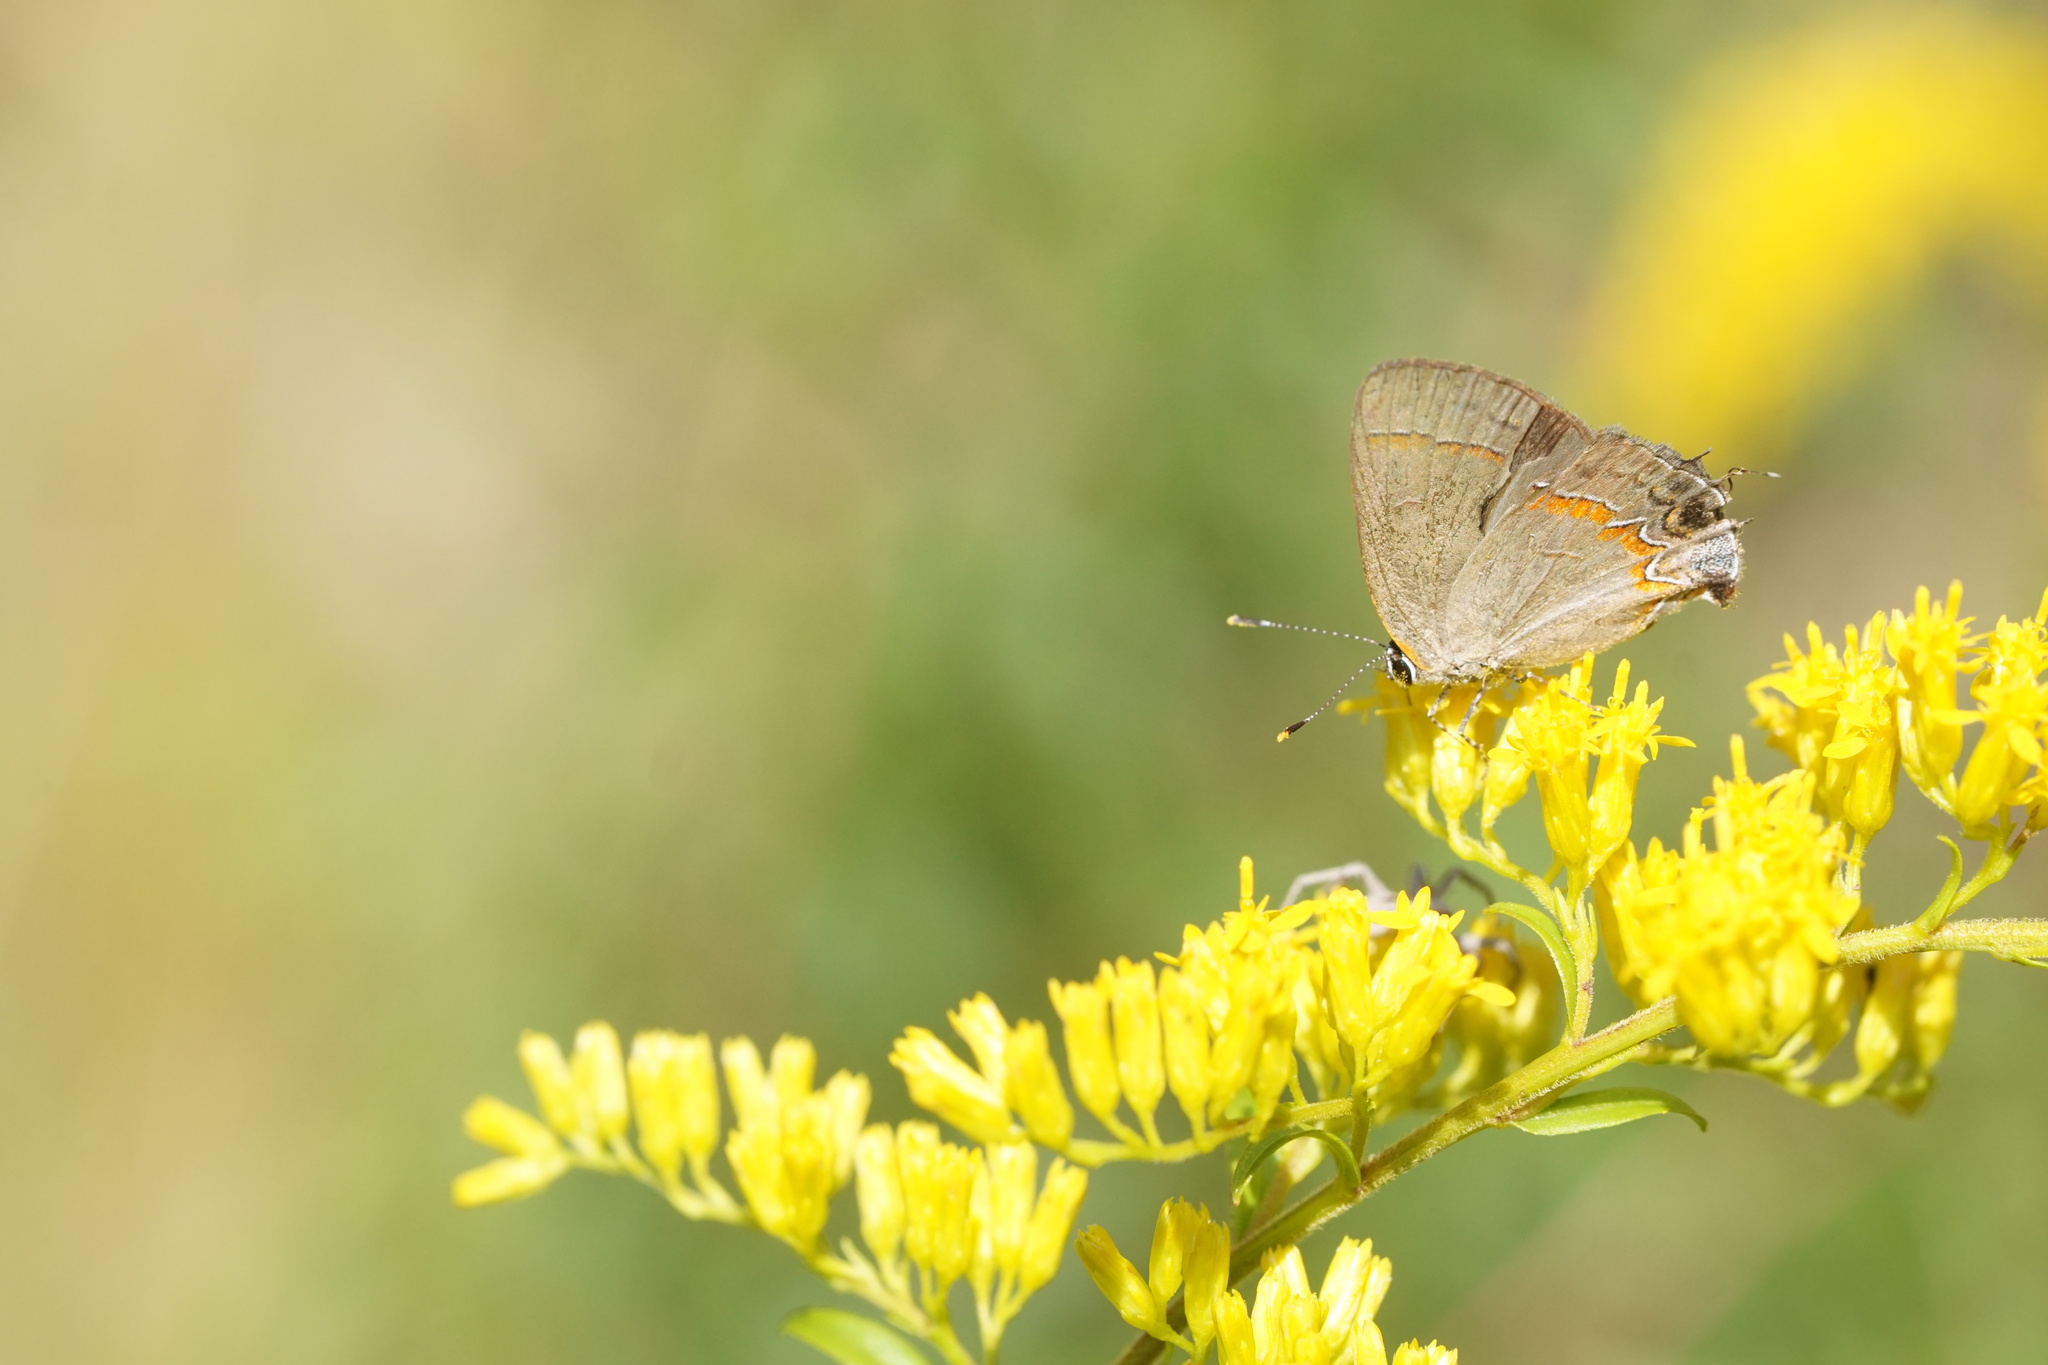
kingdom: Animalia
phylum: Arthropoda
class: Insecta
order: Lepidoptera
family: Lycaenidae
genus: Calycopis
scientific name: Calycopis cecrops
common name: Red-banded hairstreak
